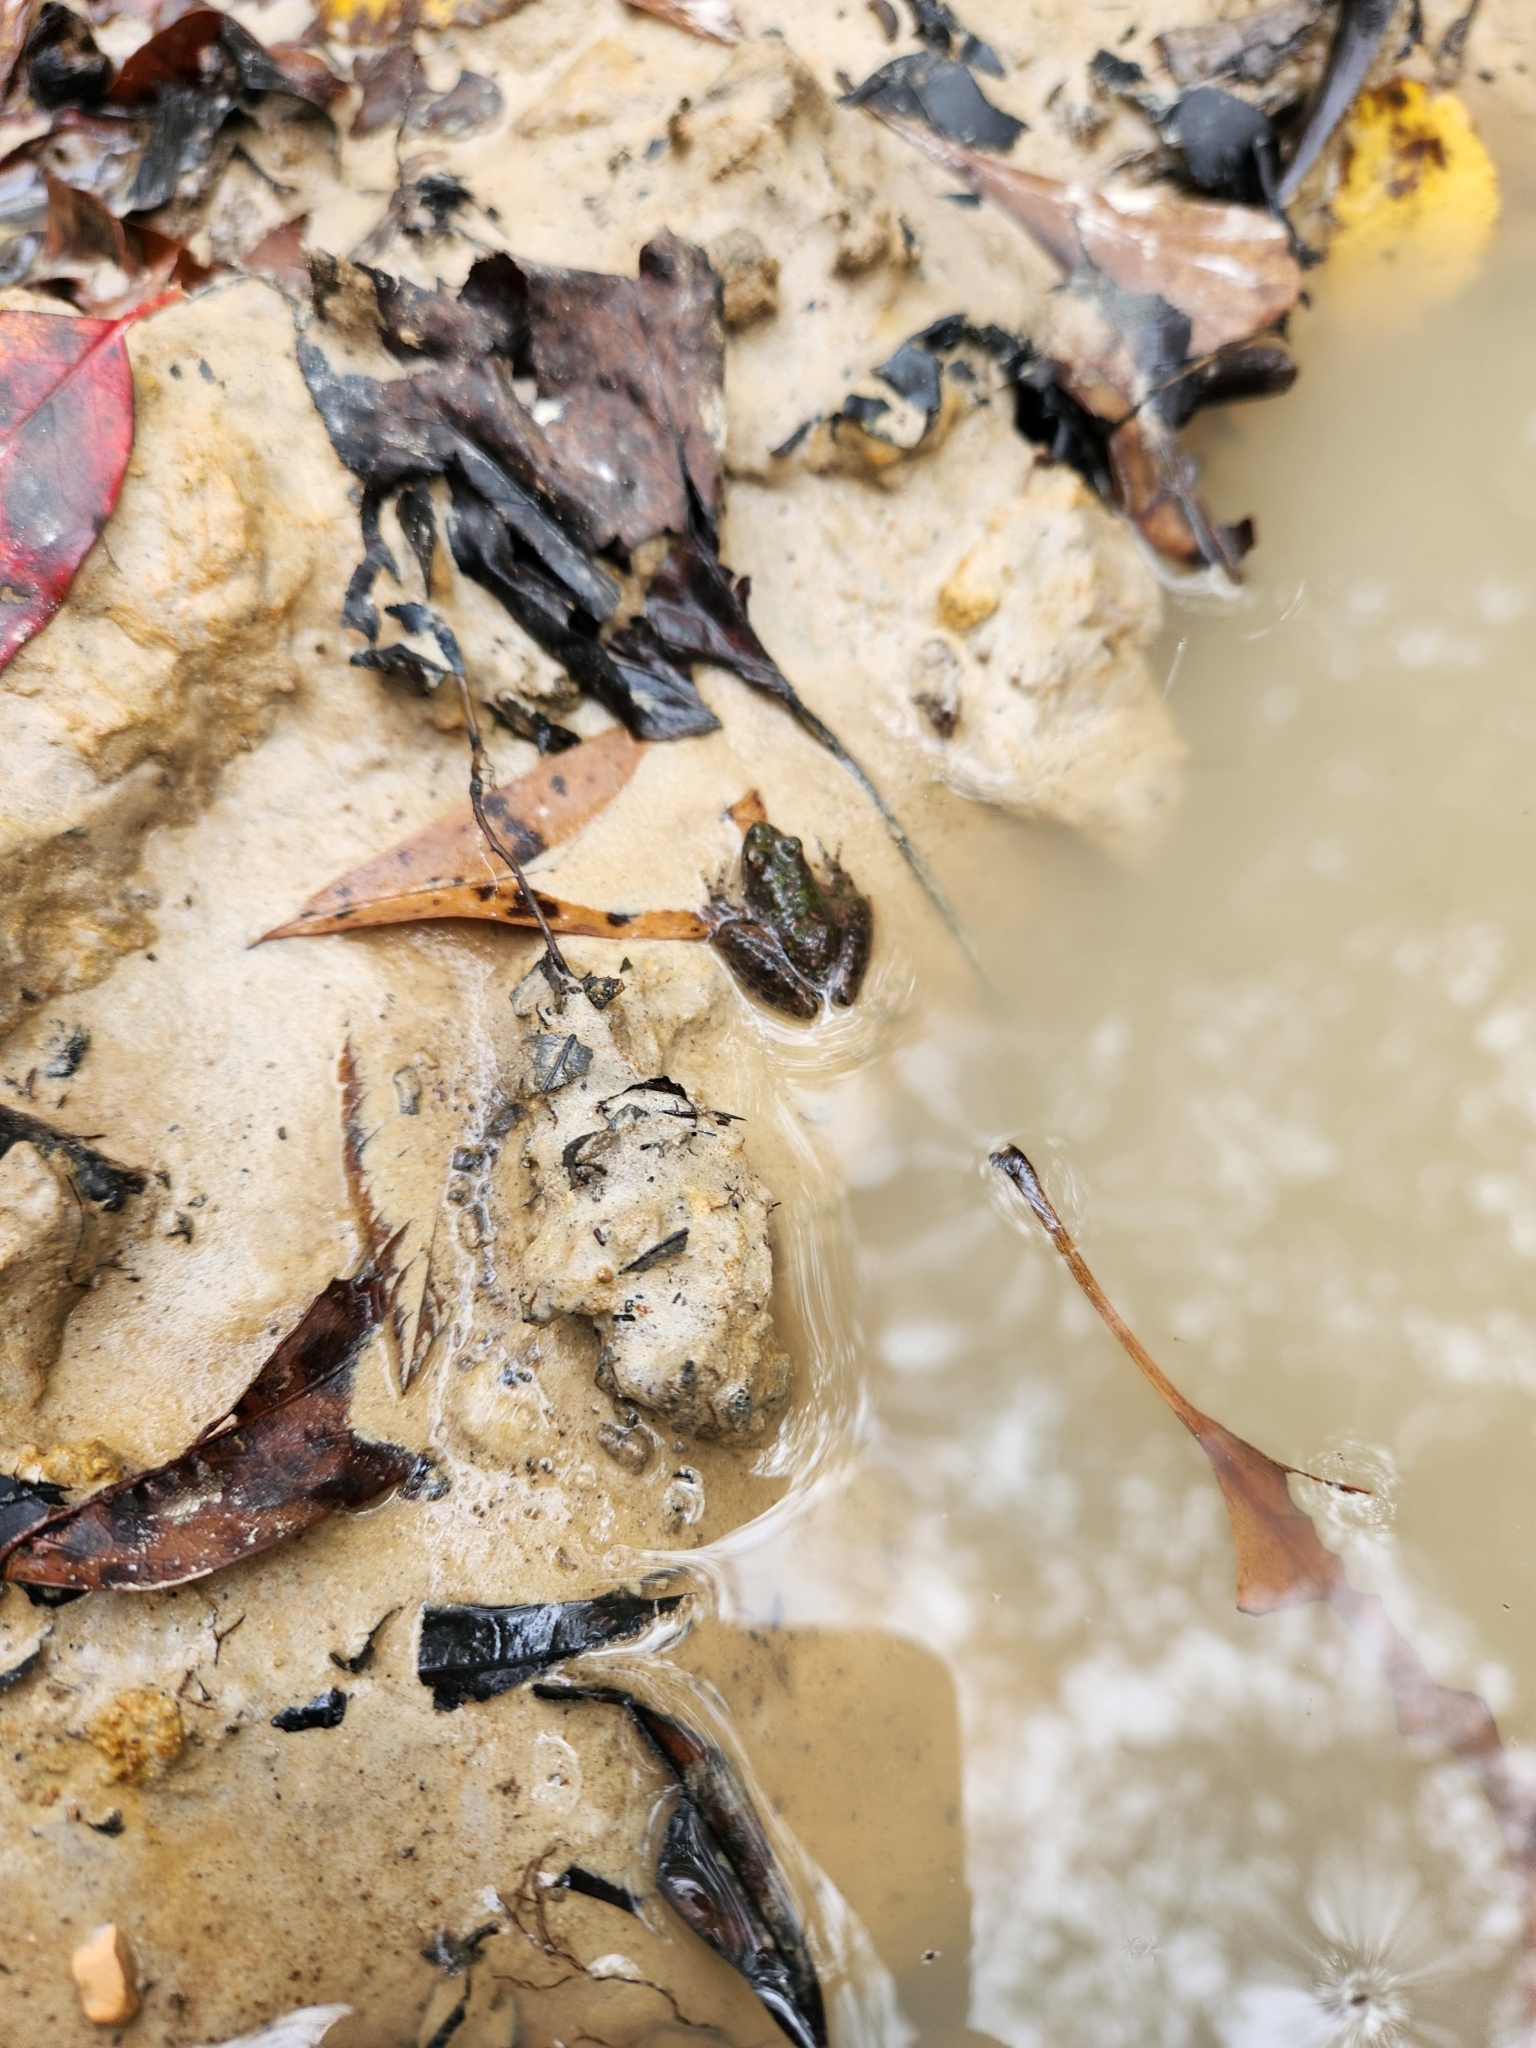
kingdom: Animalia
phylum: Chordata
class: Amphibia
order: Anura
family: Hylidae
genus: Acris
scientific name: Acris blanchardi
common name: Blanchard's cricket frog
